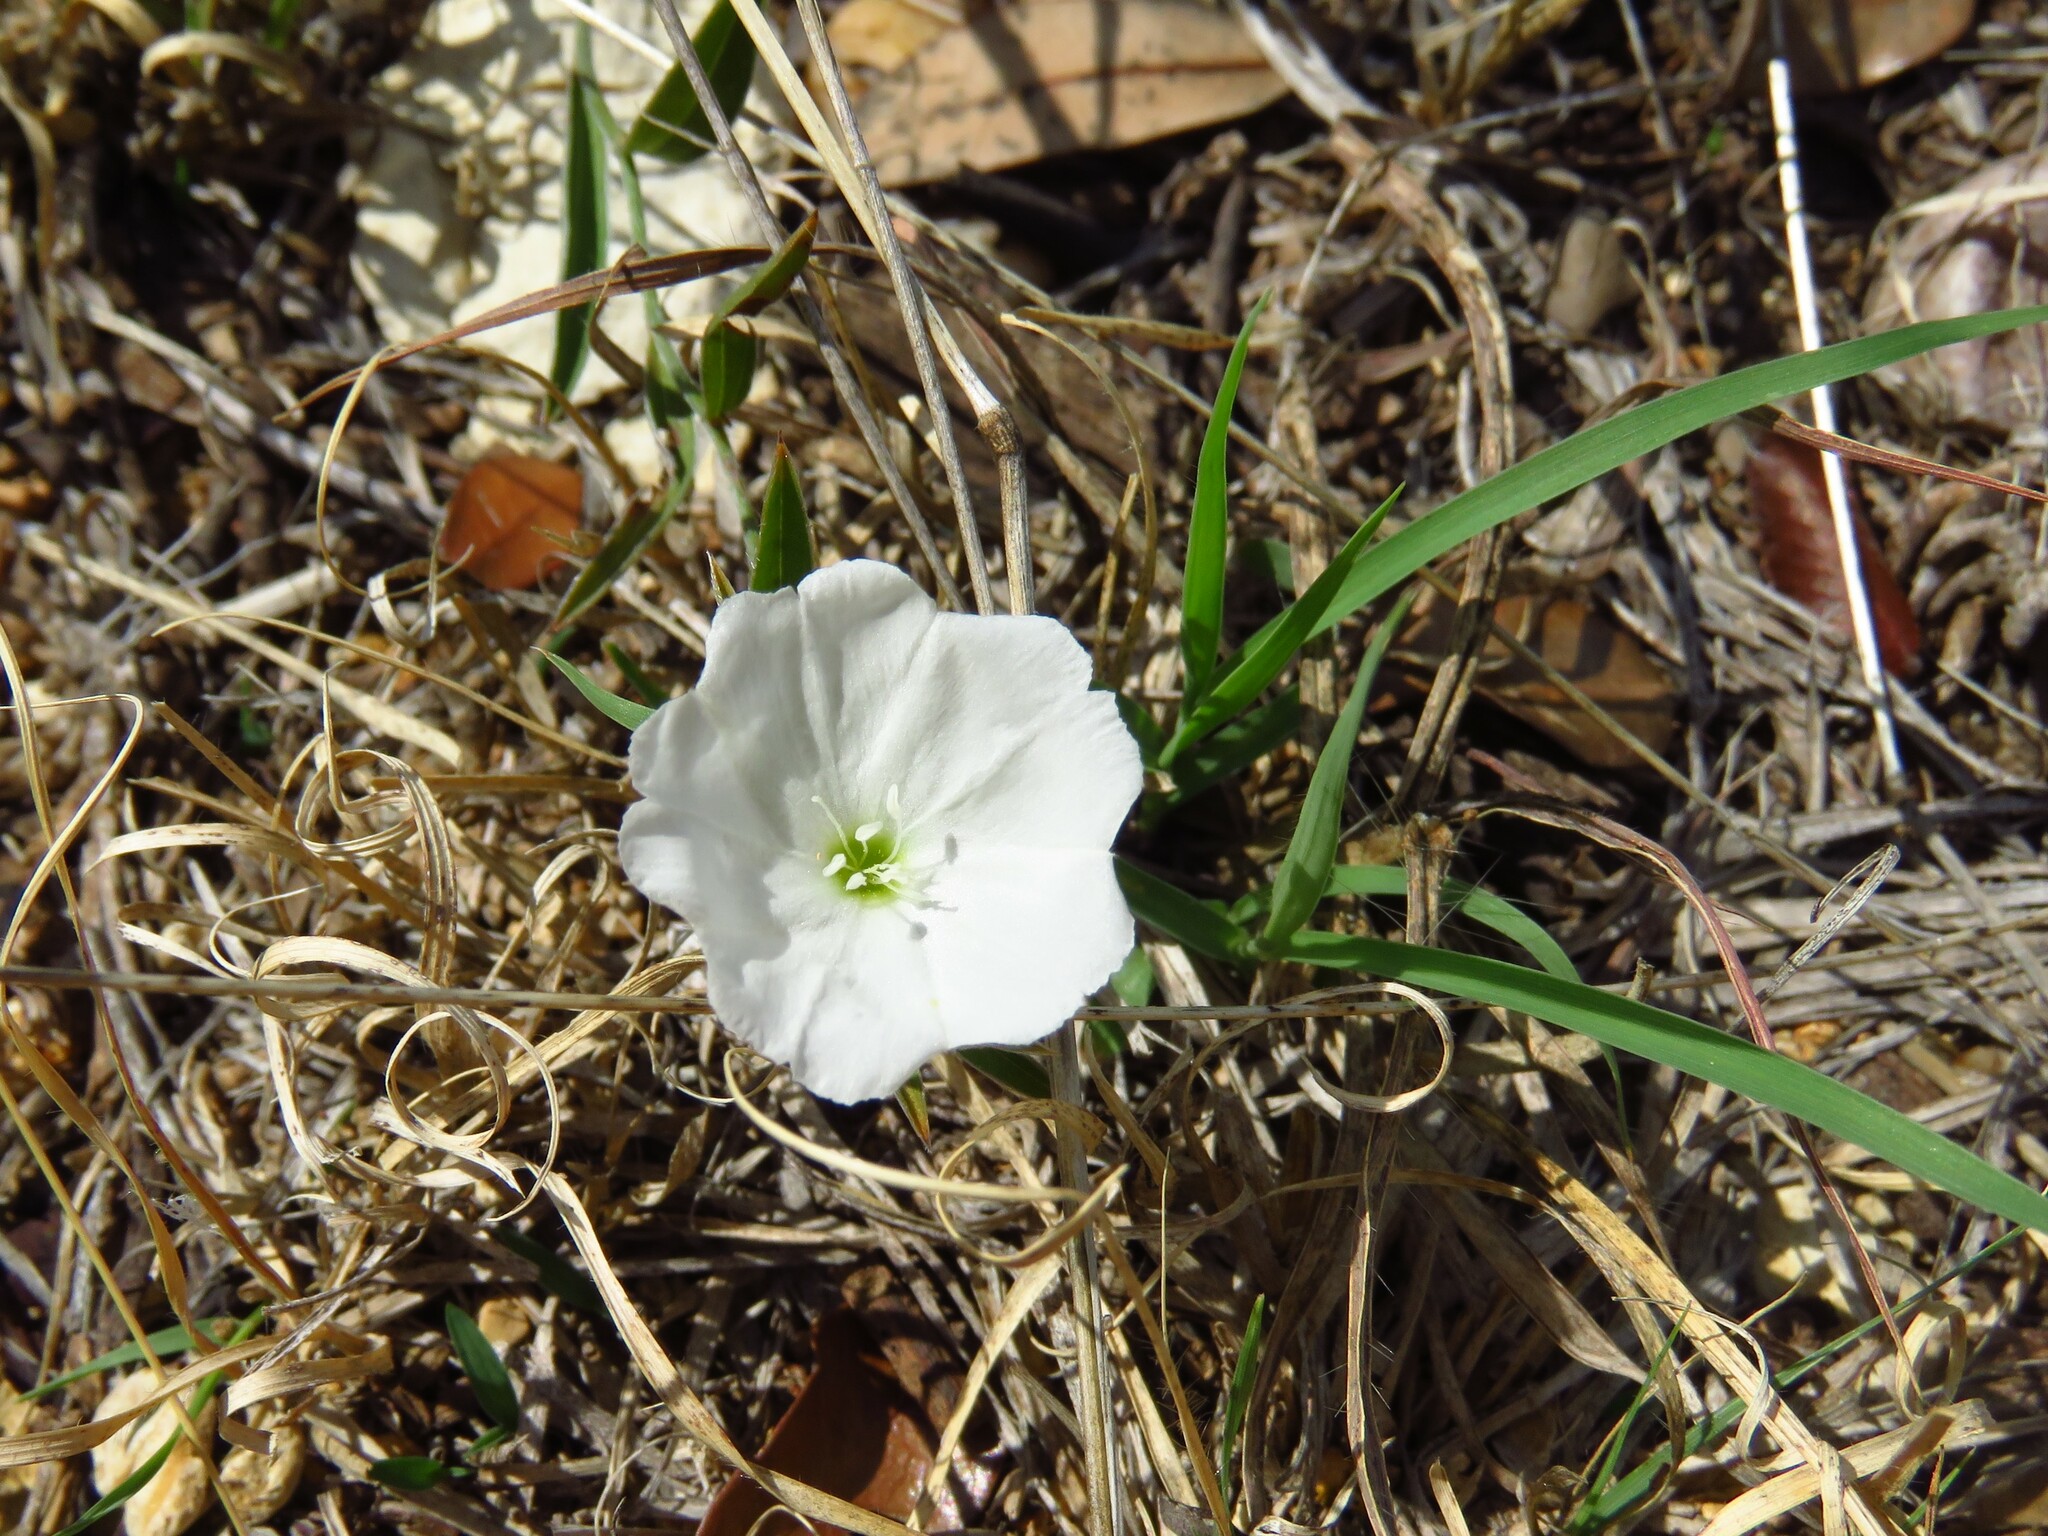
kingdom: Plantae
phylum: Tracheophyta
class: Magnoliopsida
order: Solanales
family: Convolvulaceae
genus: Evolvulus
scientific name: Evolvulus sericeus
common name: Blue dots
